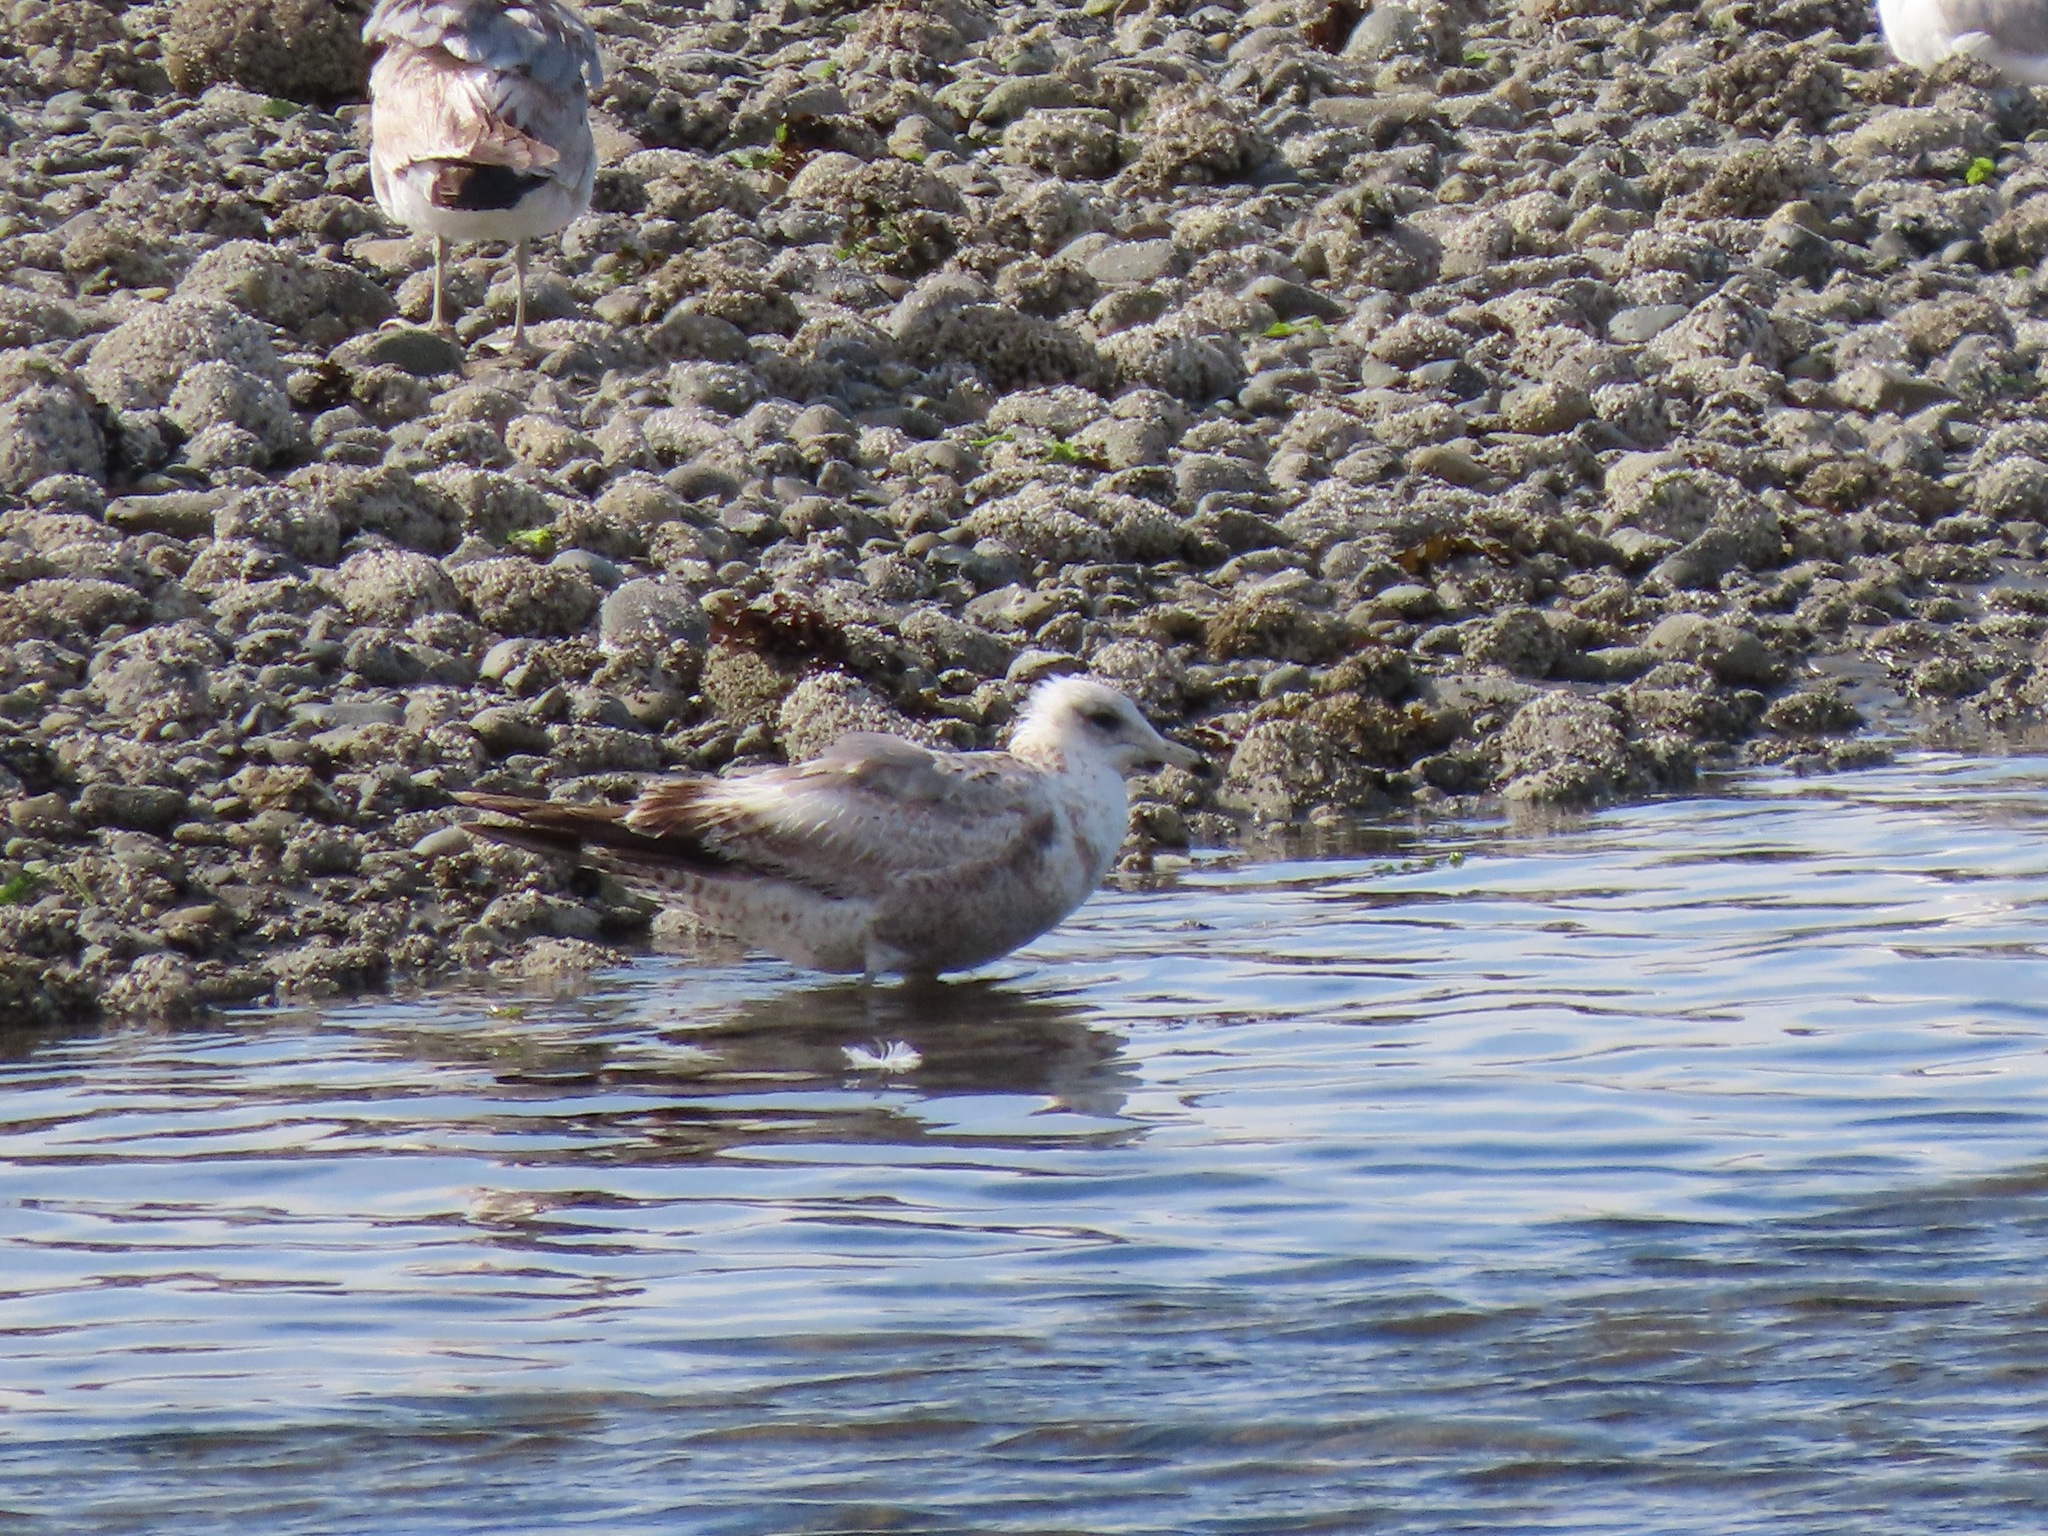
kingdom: Animalia
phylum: Chordata
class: Aves
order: Charadriiformes
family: Laridae
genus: Larus
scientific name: Larus californicus
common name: California gull
